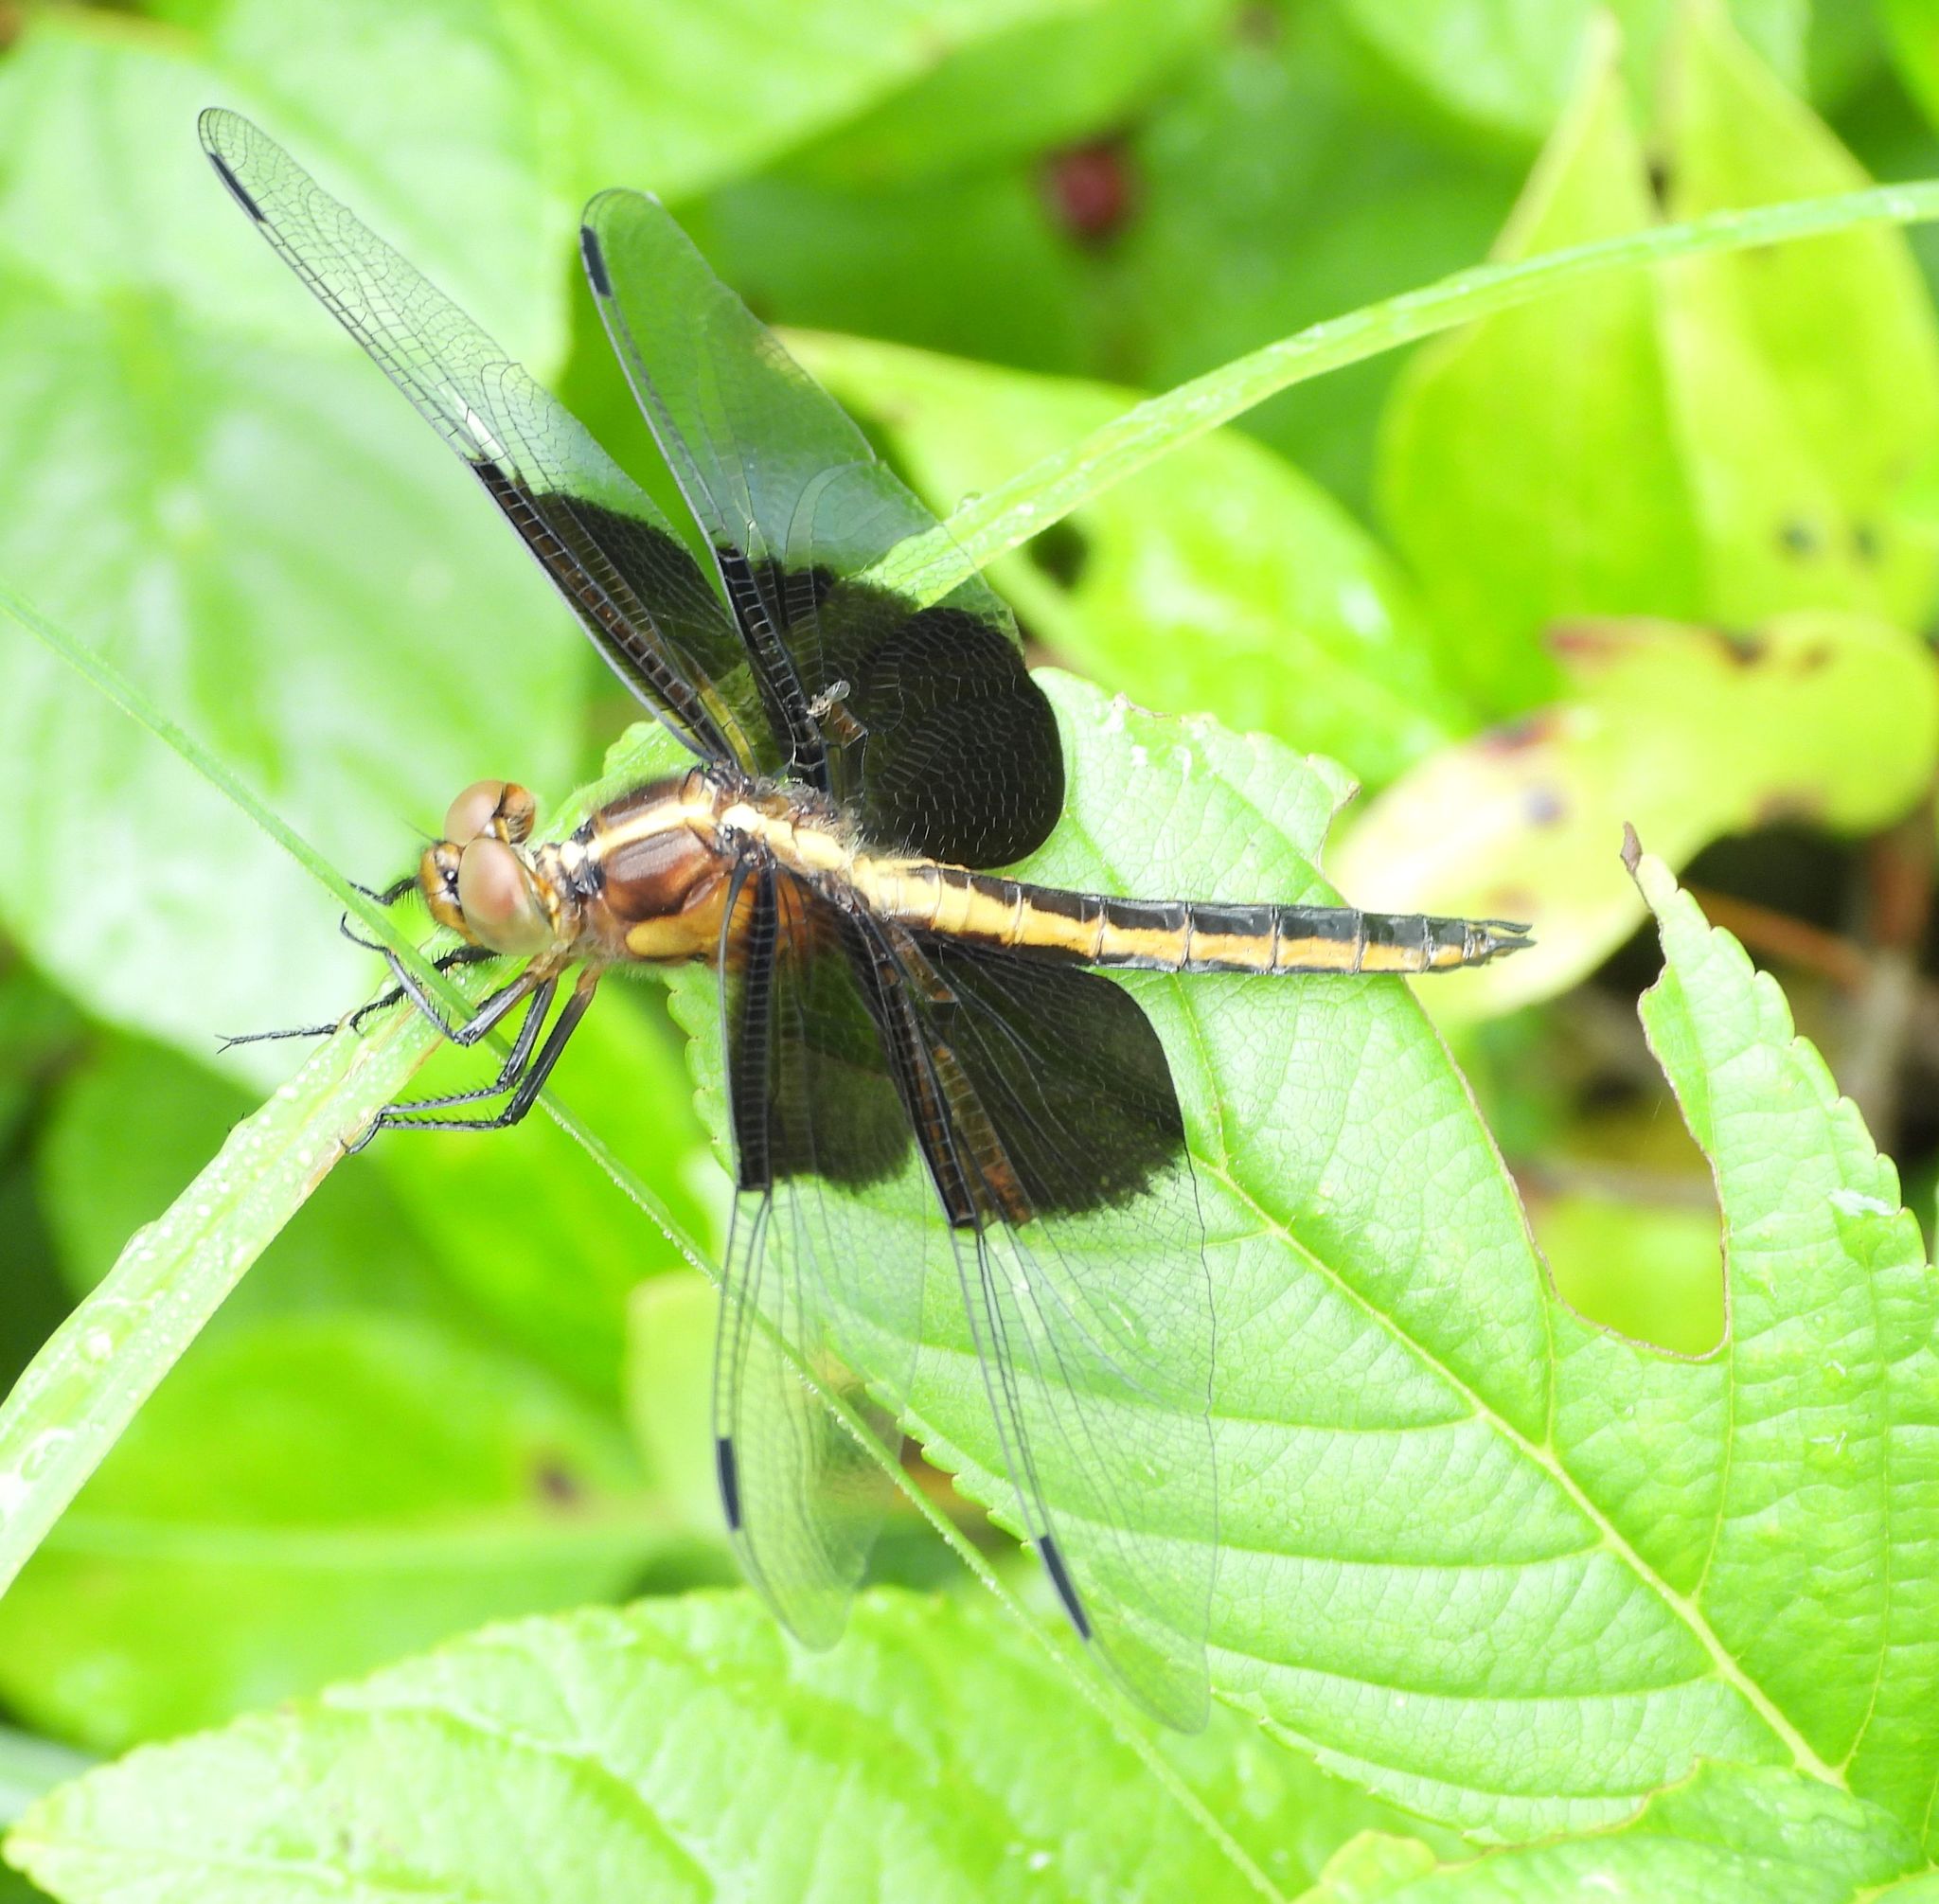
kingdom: Animalia
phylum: Arthropoda
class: Insecta
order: Odonata
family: Libellulidae
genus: Libellula
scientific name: Libellula luctuosa
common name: Widow skimmer
